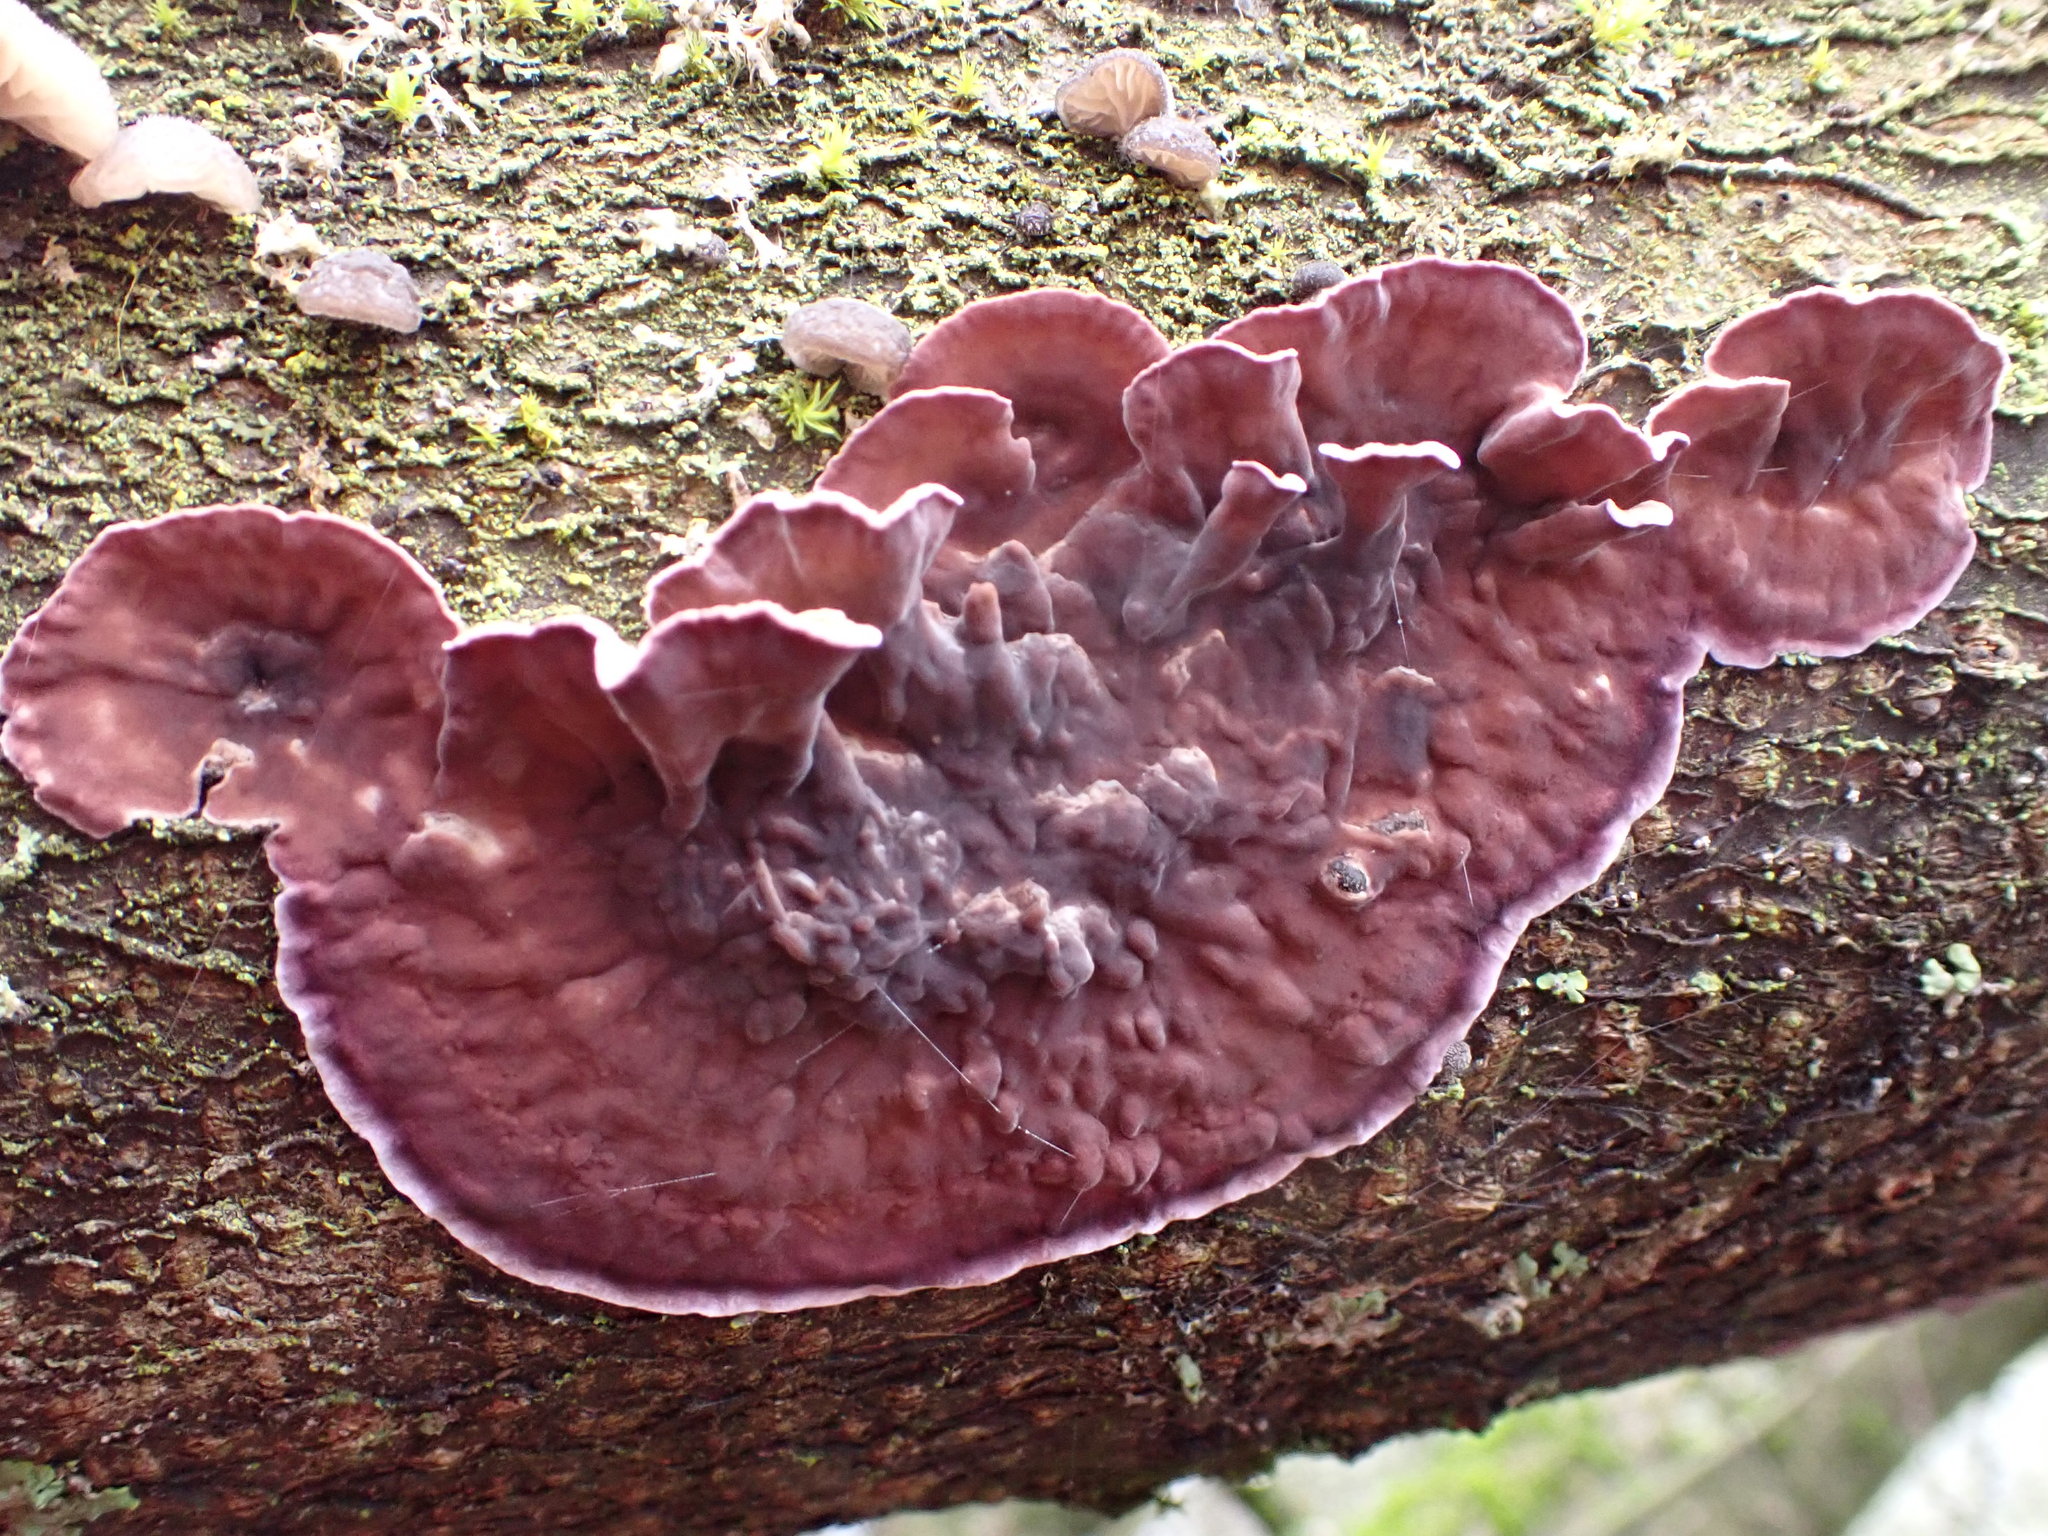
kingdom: Fungi
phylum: Basidiomycota
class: Agaricomycetes
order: Agaricales
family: Cyphellaceae
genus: Chondrostereum
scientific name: Chondrostereum purpureum
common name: Silver leaf disease
